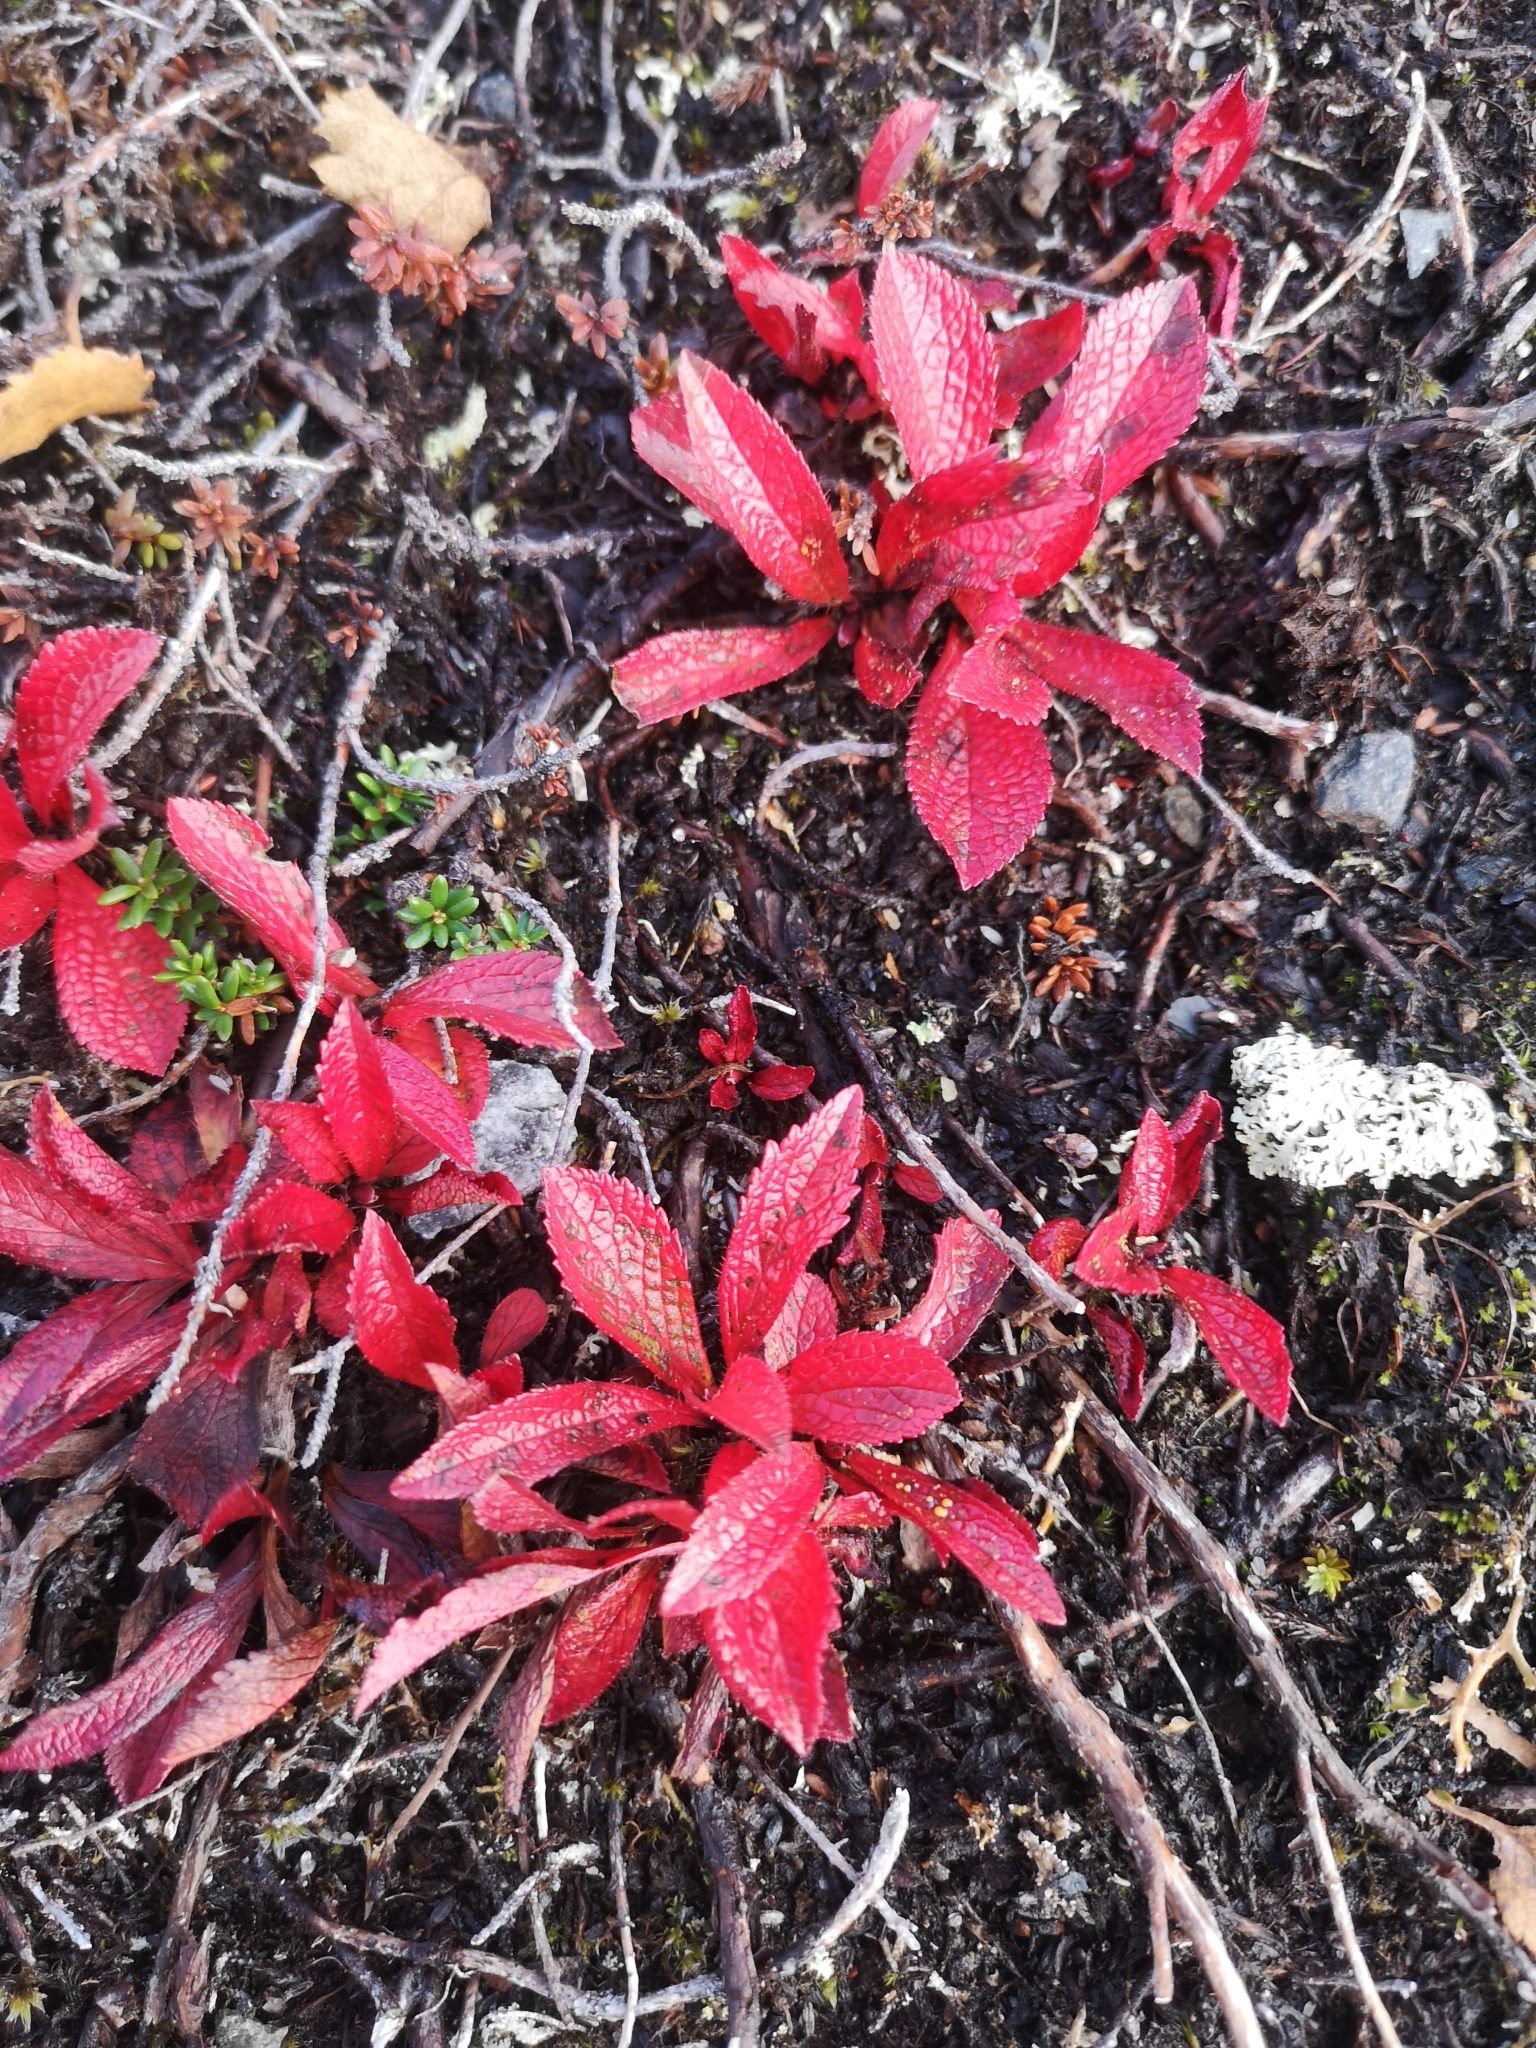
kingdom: Plantae
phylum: Tracheophyta
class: Magnoliopsida
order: Ericales
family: Ericaceae
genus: Arctostaphylos
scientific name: Arctostaphylos alpinus
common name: Alpine bearberry
